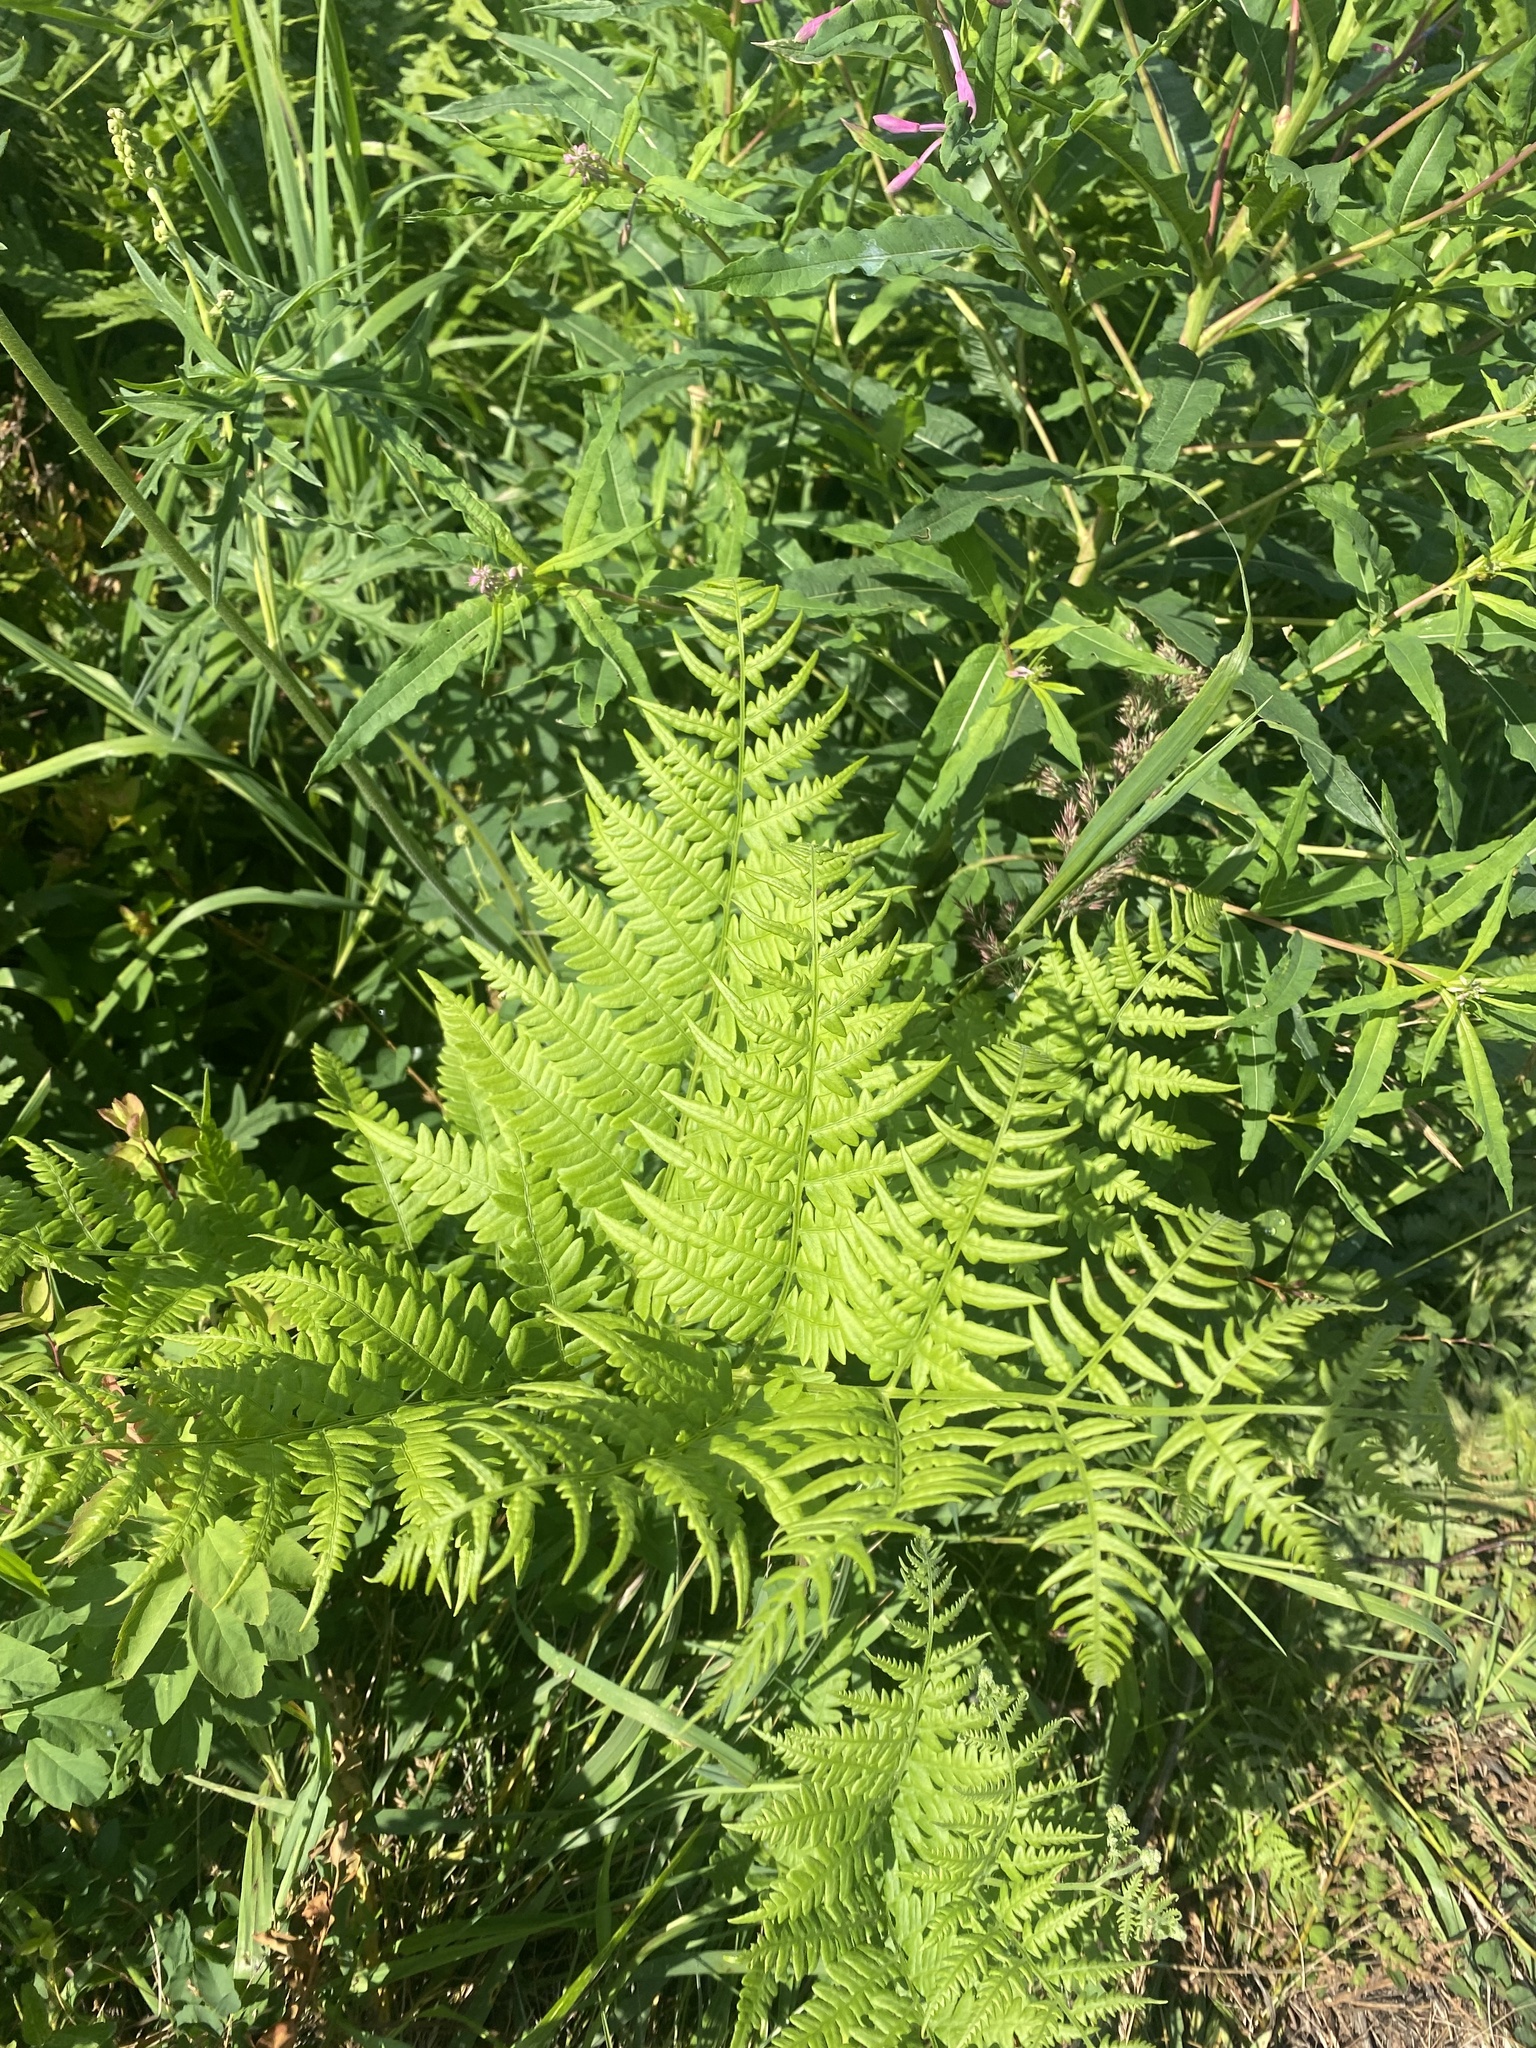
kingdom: Plantae
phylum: Tracheophyta
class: Polypodiopsida
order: Polypodiales
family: Dennstaedtiaceae
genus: Pteridium
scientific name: Pteridium aquilinum
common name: Bracken
